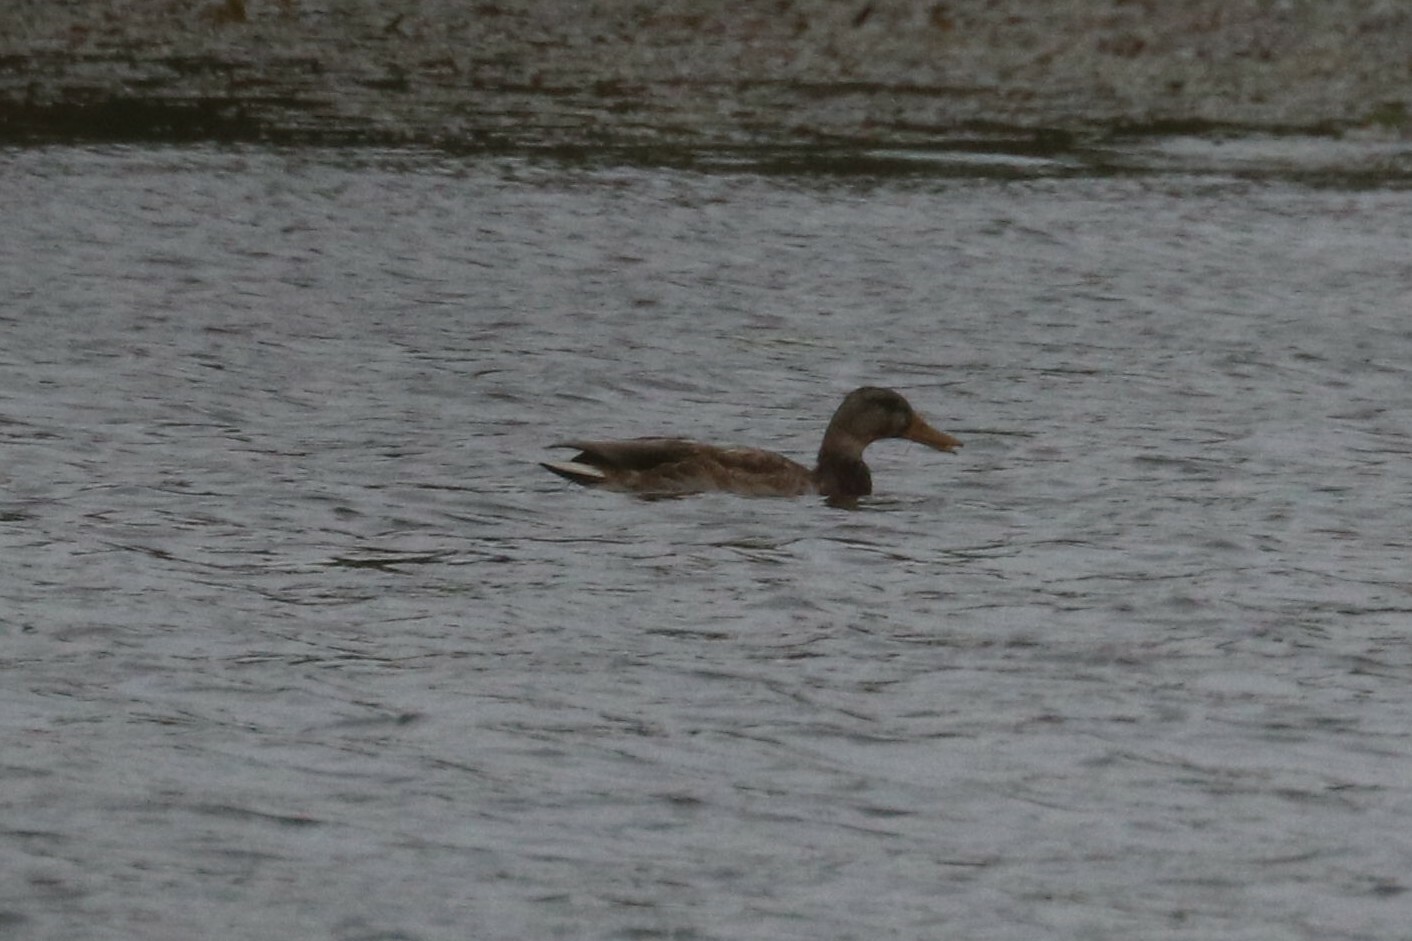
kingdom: Animalia
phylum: Chordata
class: Aves
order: Anseriformes
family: Anatidae
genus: Anas
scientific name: Anas platyrhynchos
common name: Mallard
